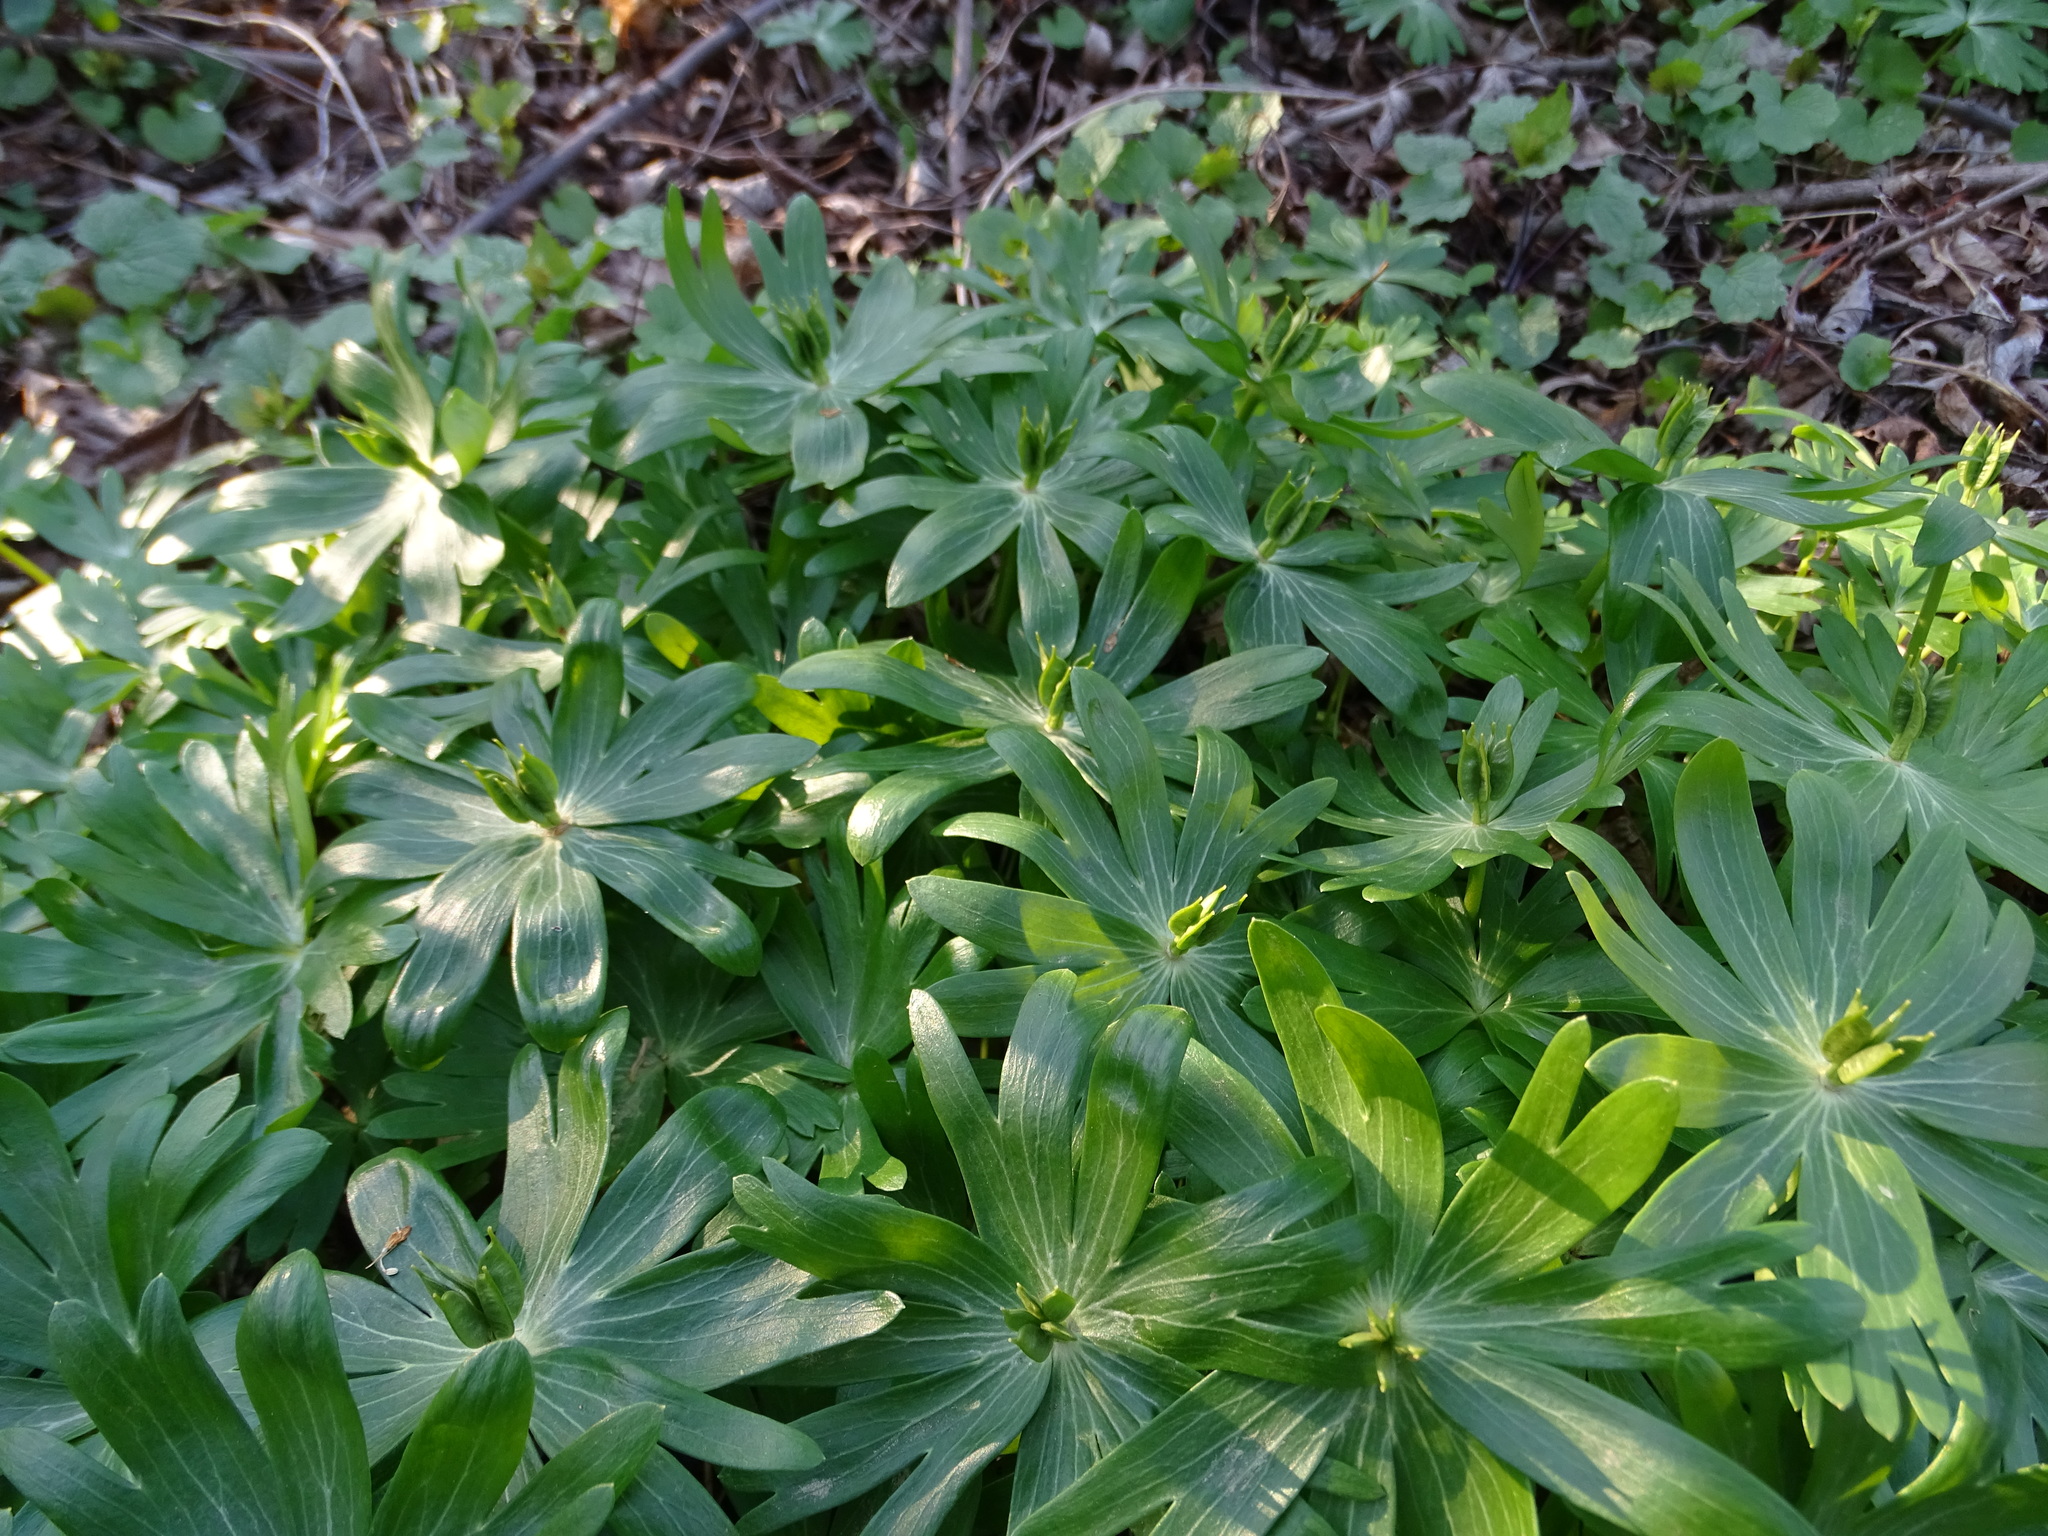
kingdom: Plantae
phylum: Tracheophyta
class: Magnoliopsida
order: Ranunculales
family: Ranunculaceae
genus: Eranthis
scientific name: Eranthis hyemalis
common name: Winter aconite
